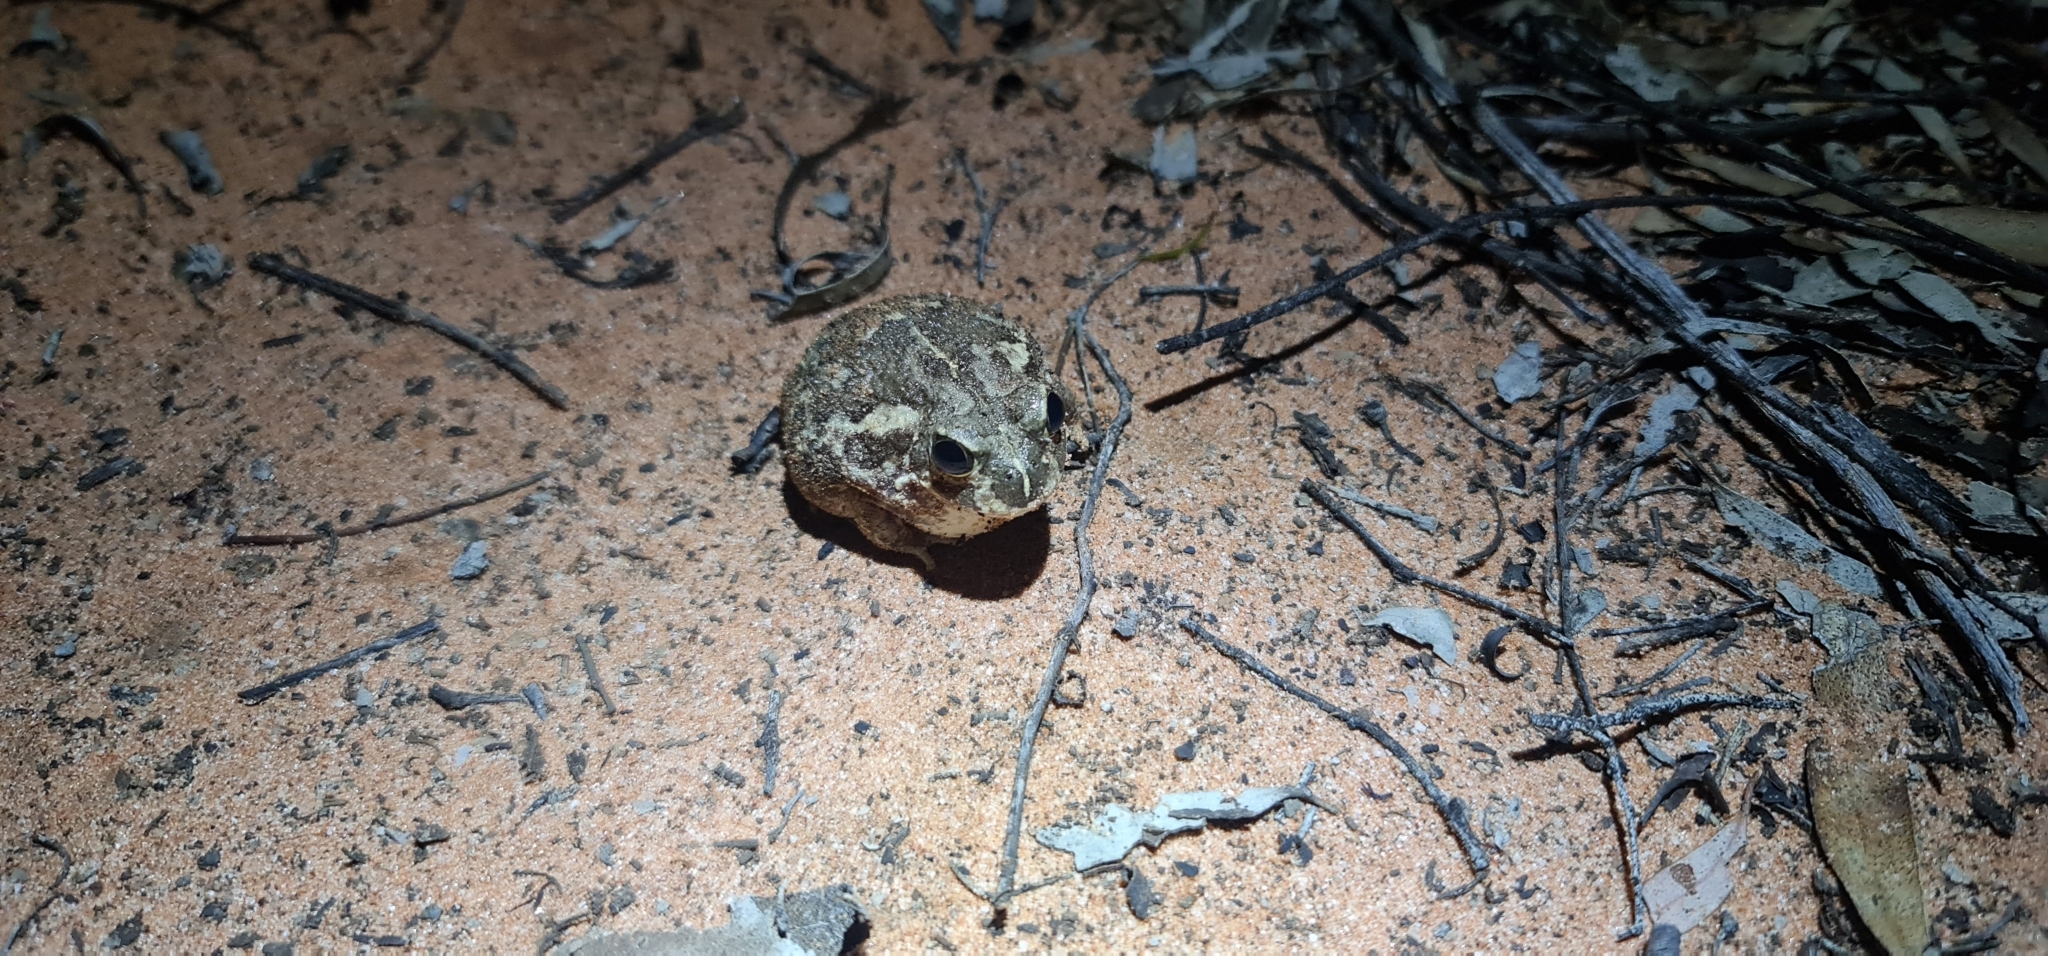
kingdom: Animalia
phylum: Chordata
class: Amphibia
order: Anura
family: Limnodynastidae
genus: Neobatrachus
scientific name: Neobatrachus sudelli
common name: Common spadefoot toad
